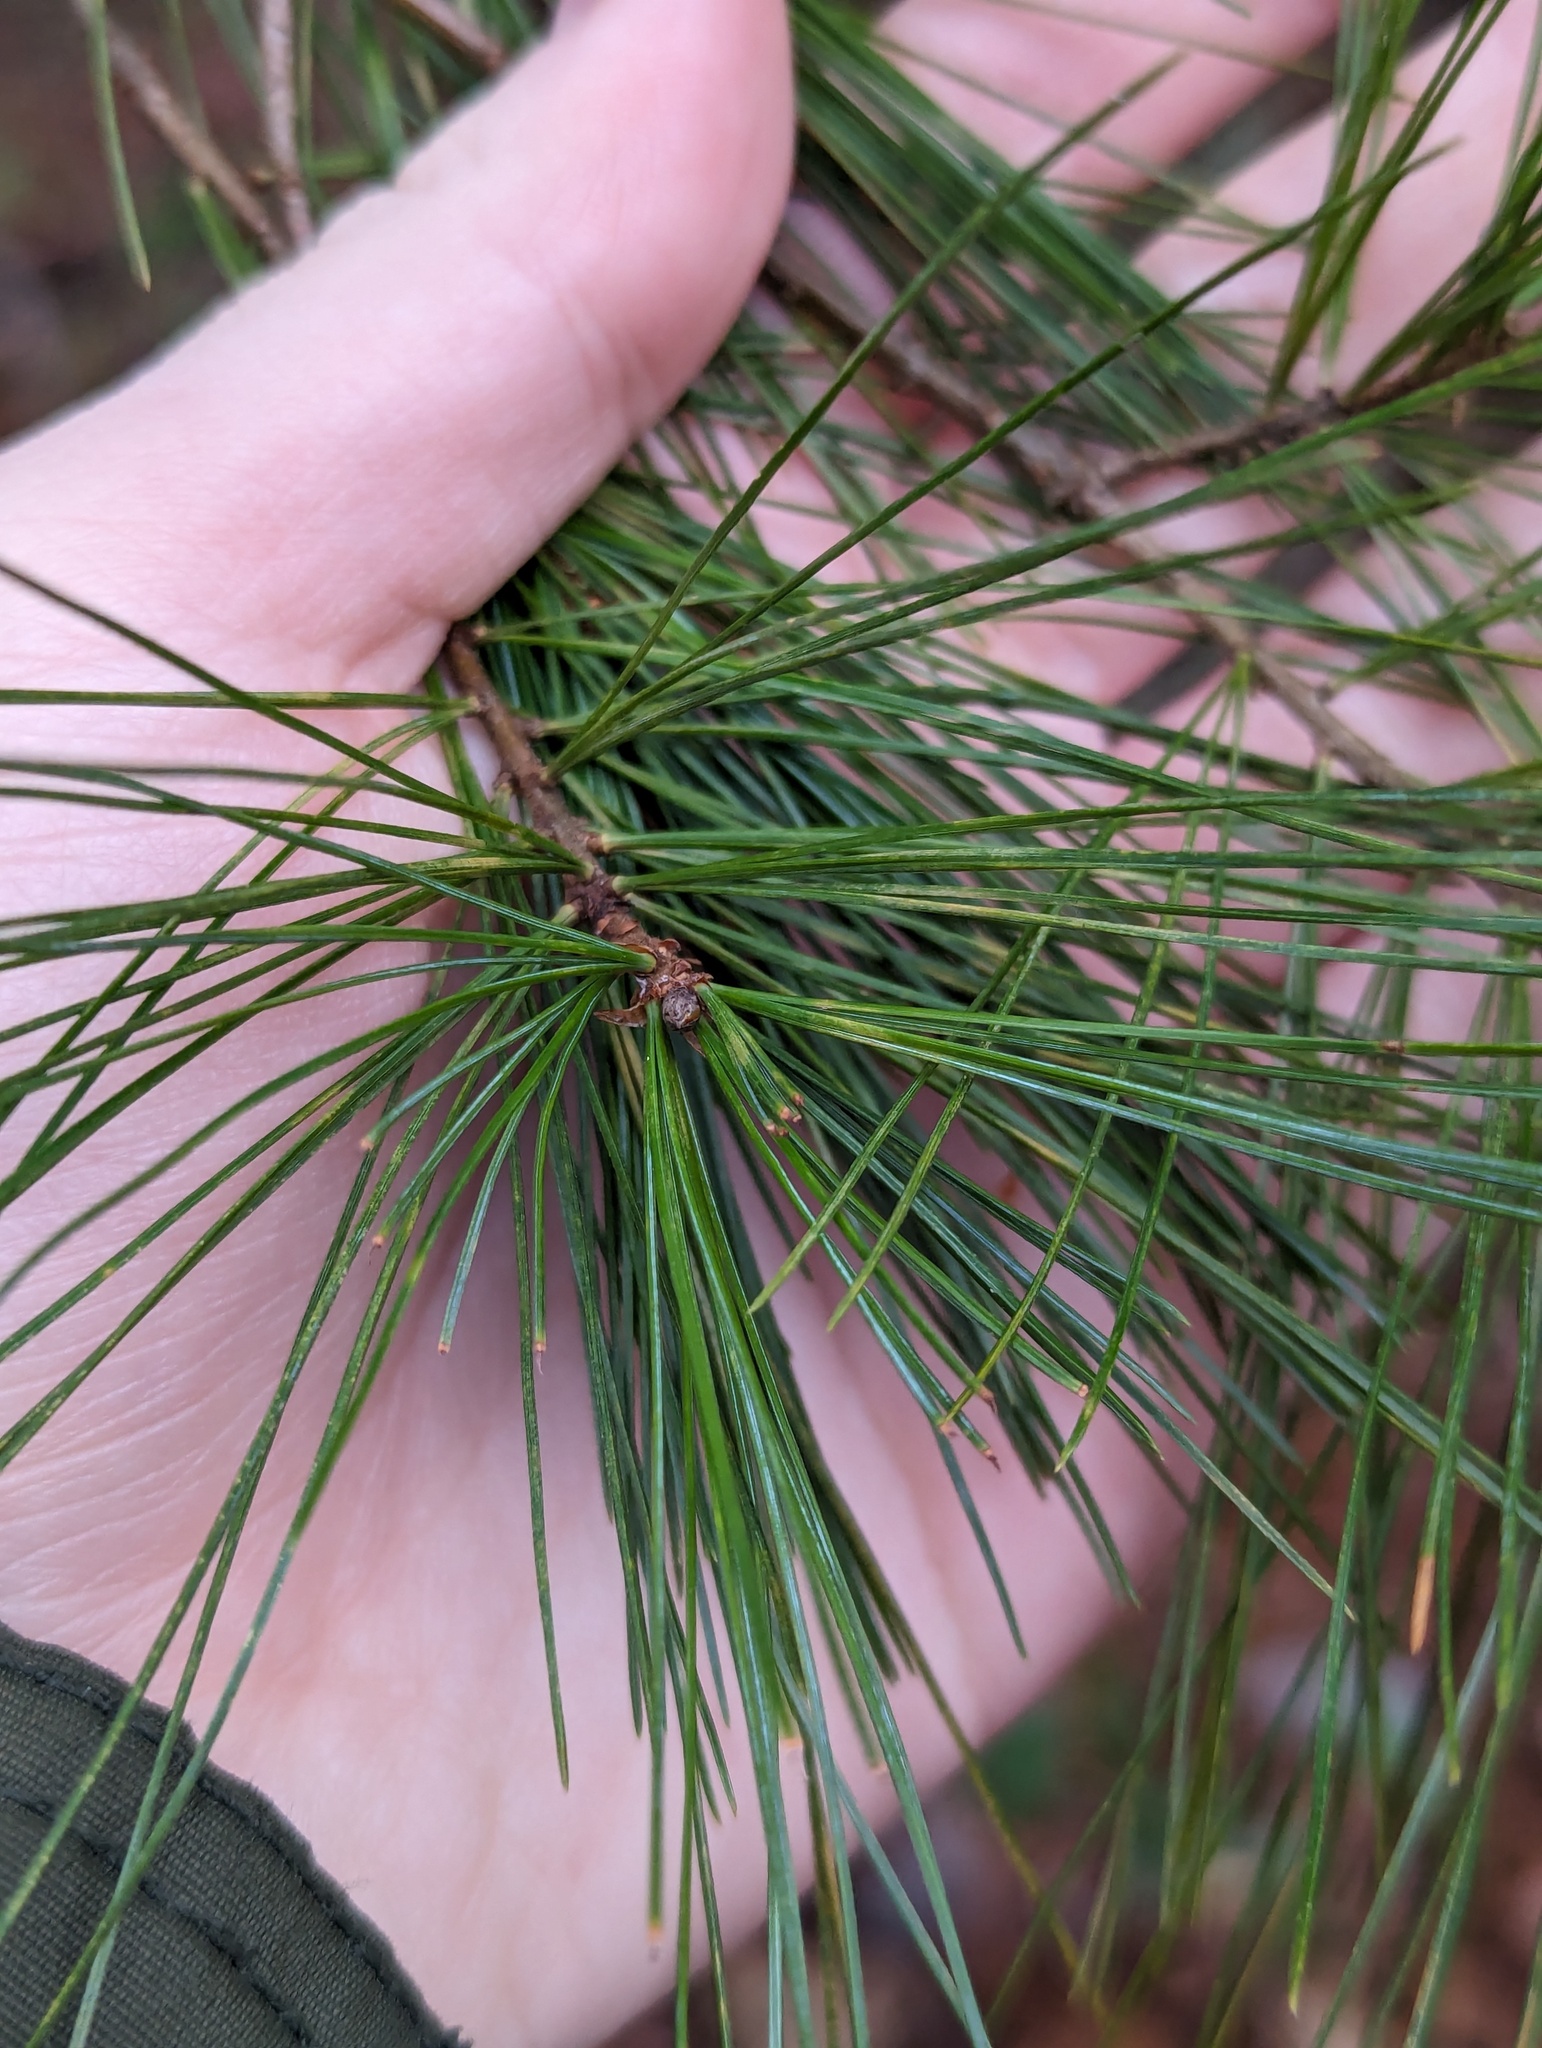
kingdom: Plantae
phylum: Tracheophyta
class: Pinopsida
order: Pinales
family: Pinaceae
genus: Pinus
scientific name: Pinus strobus
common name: Weymouth pine
